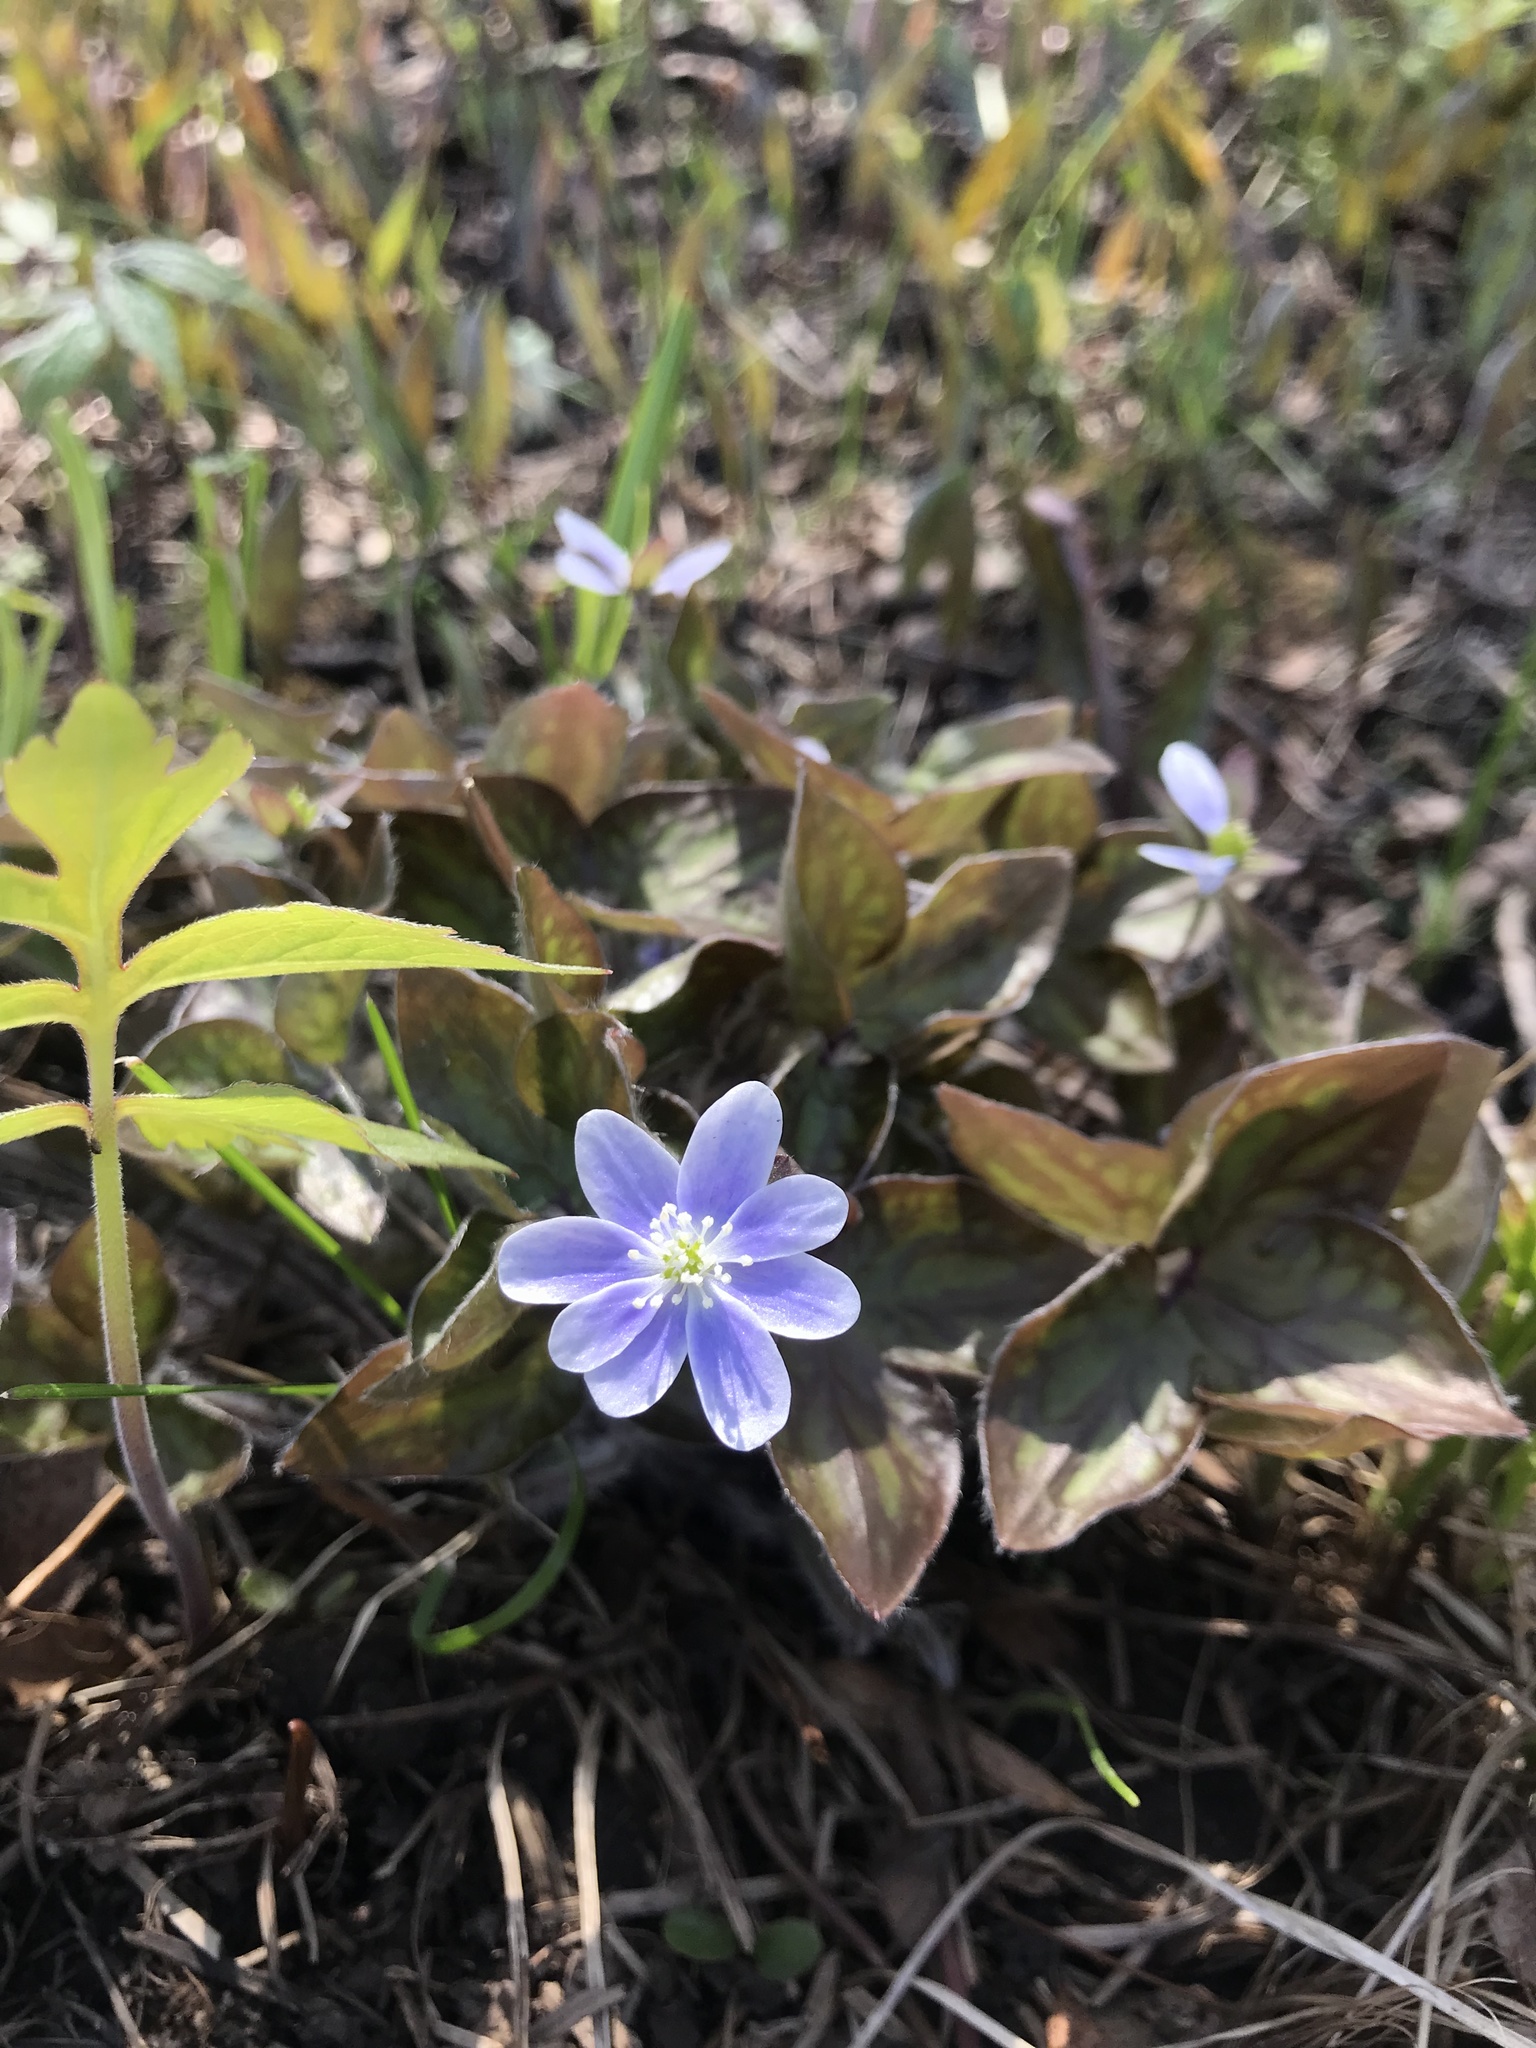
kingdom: Plantae
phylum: Tracheophyta
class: Magnoliopsida
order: Ranunculales
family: Ranunculaceae
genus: Hepatica
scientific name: Hepatica acutiloba
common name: Sharp-lobed hepatica
